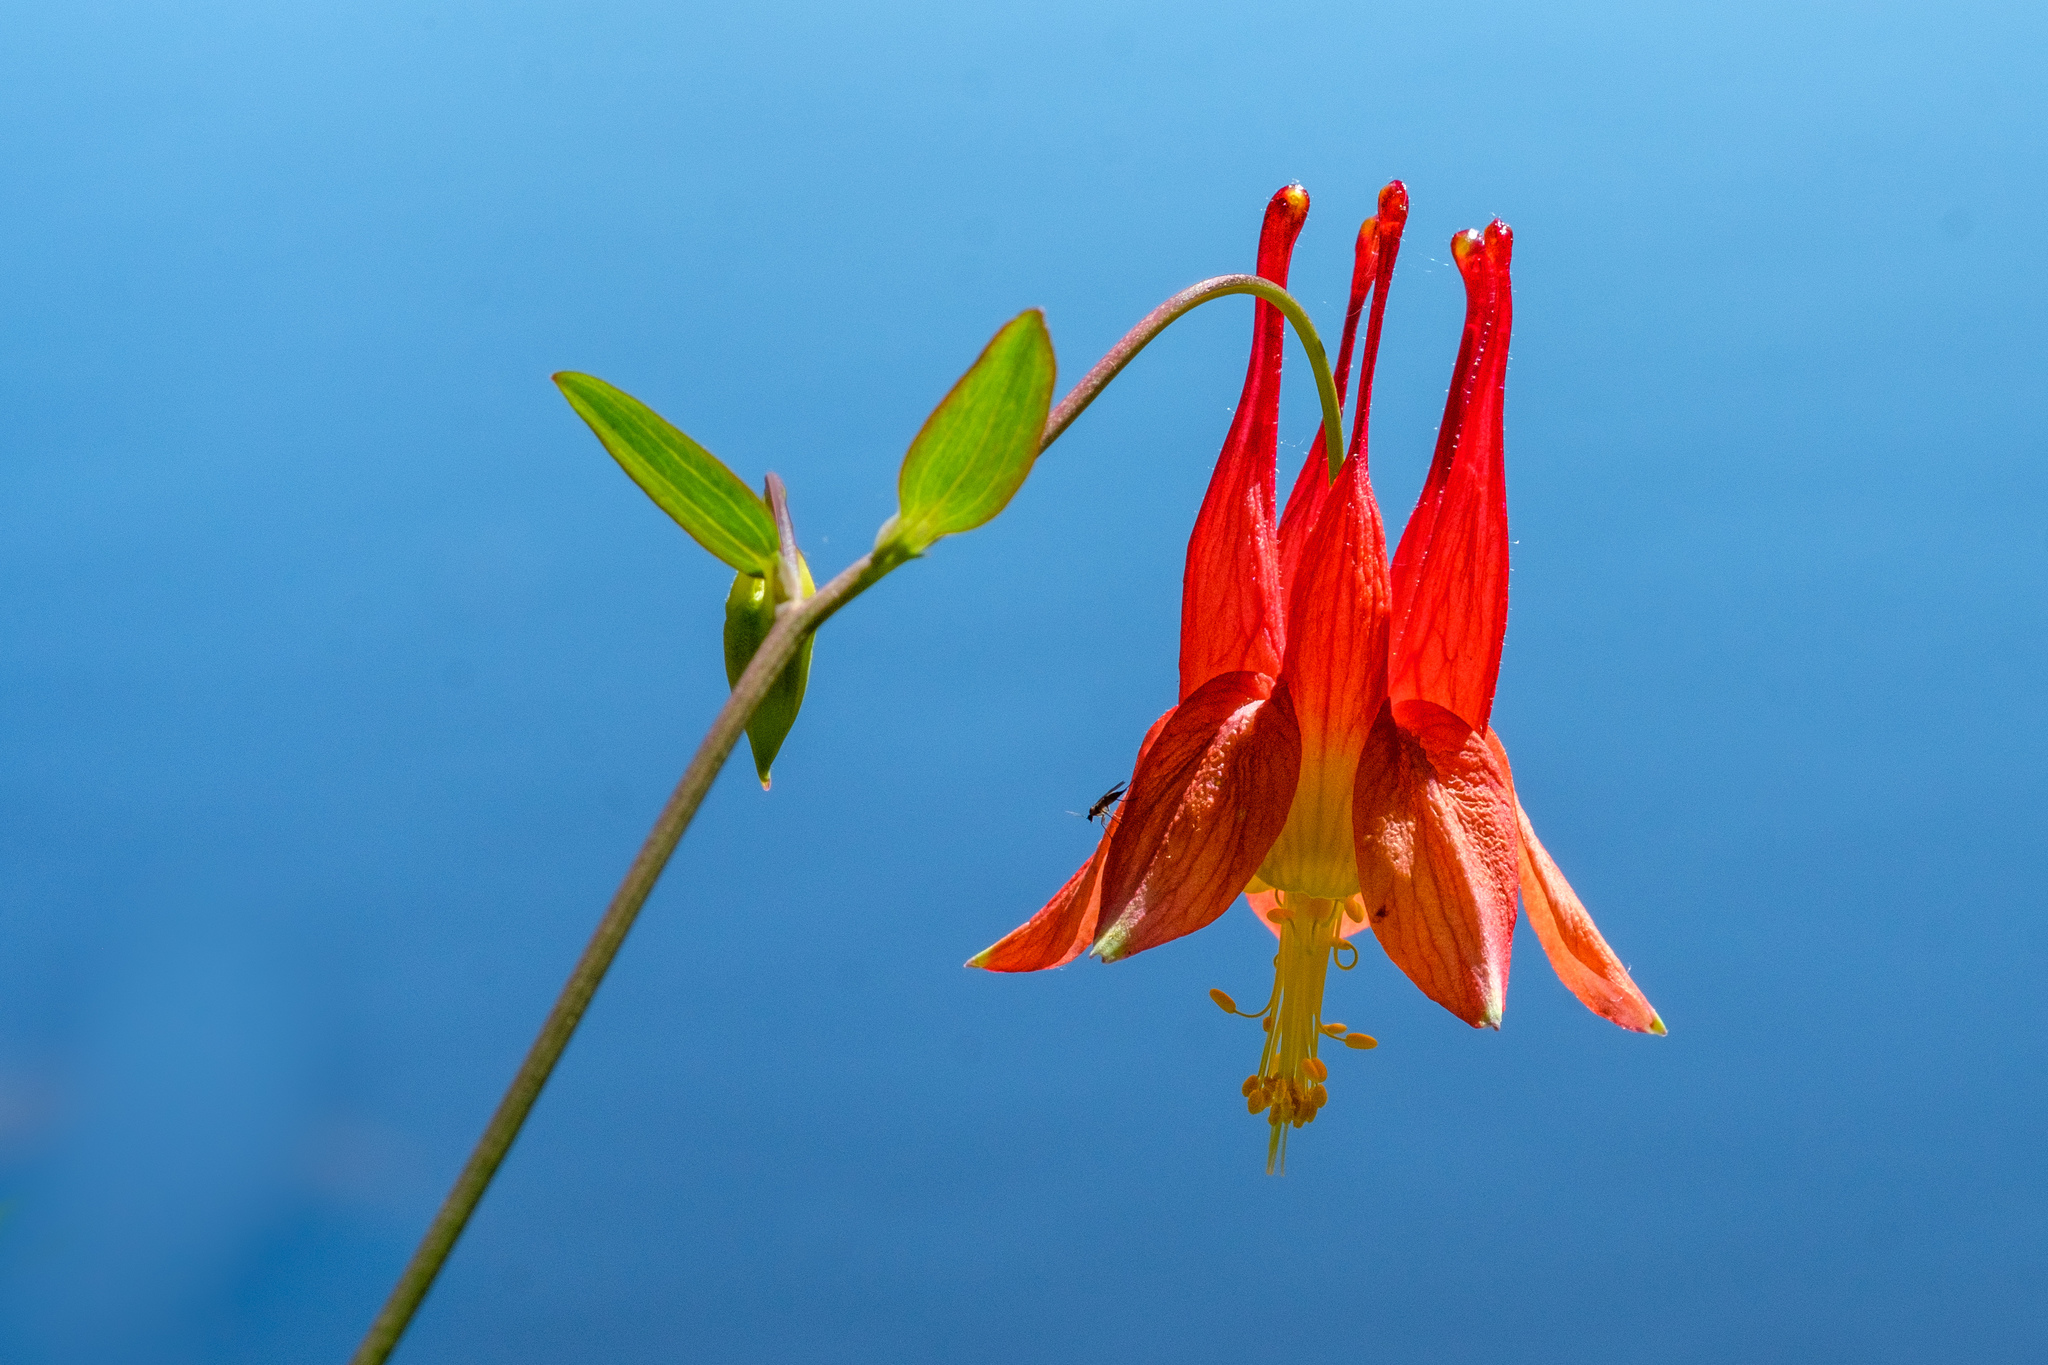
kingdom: Plantae
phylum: Tracheophyta
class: Magnoliopsida
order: Ranunculales
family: Ranunculaceae
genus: Aquilegia
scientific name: Aquilegia canadensis
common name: American columbine
